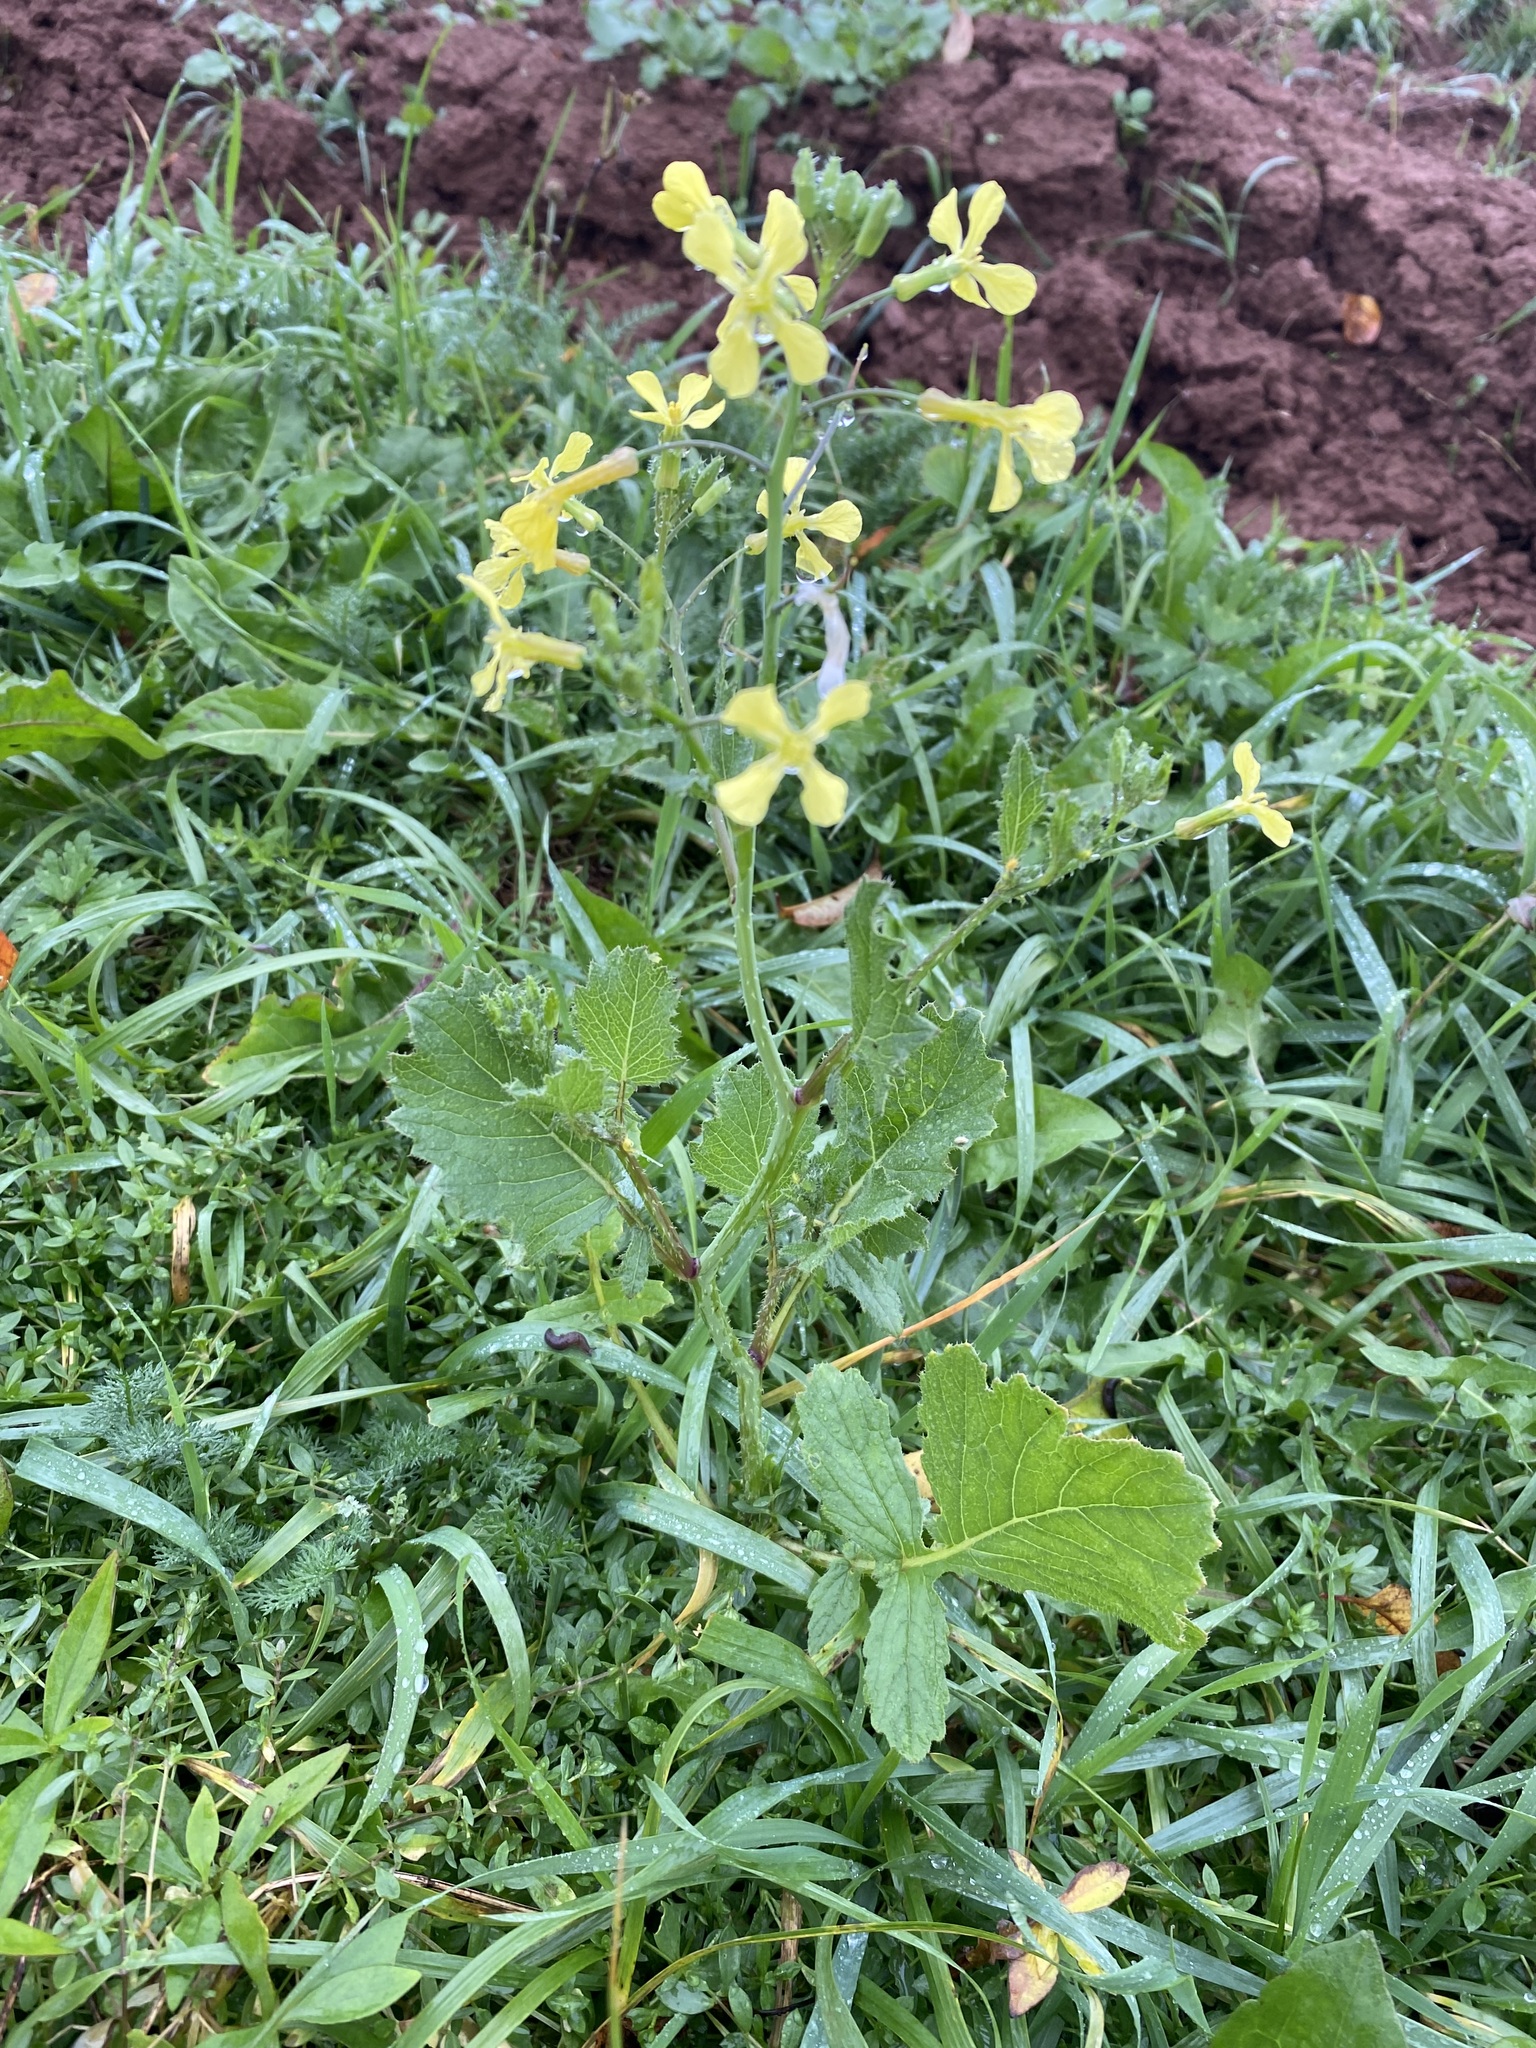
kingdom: Plantae
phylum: Tracheophyta
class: Magnoliopsida
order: Brassicales
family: Brassicaceae
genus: Raphanus
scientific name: Raphanus raphanistrum
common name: Wild radish
